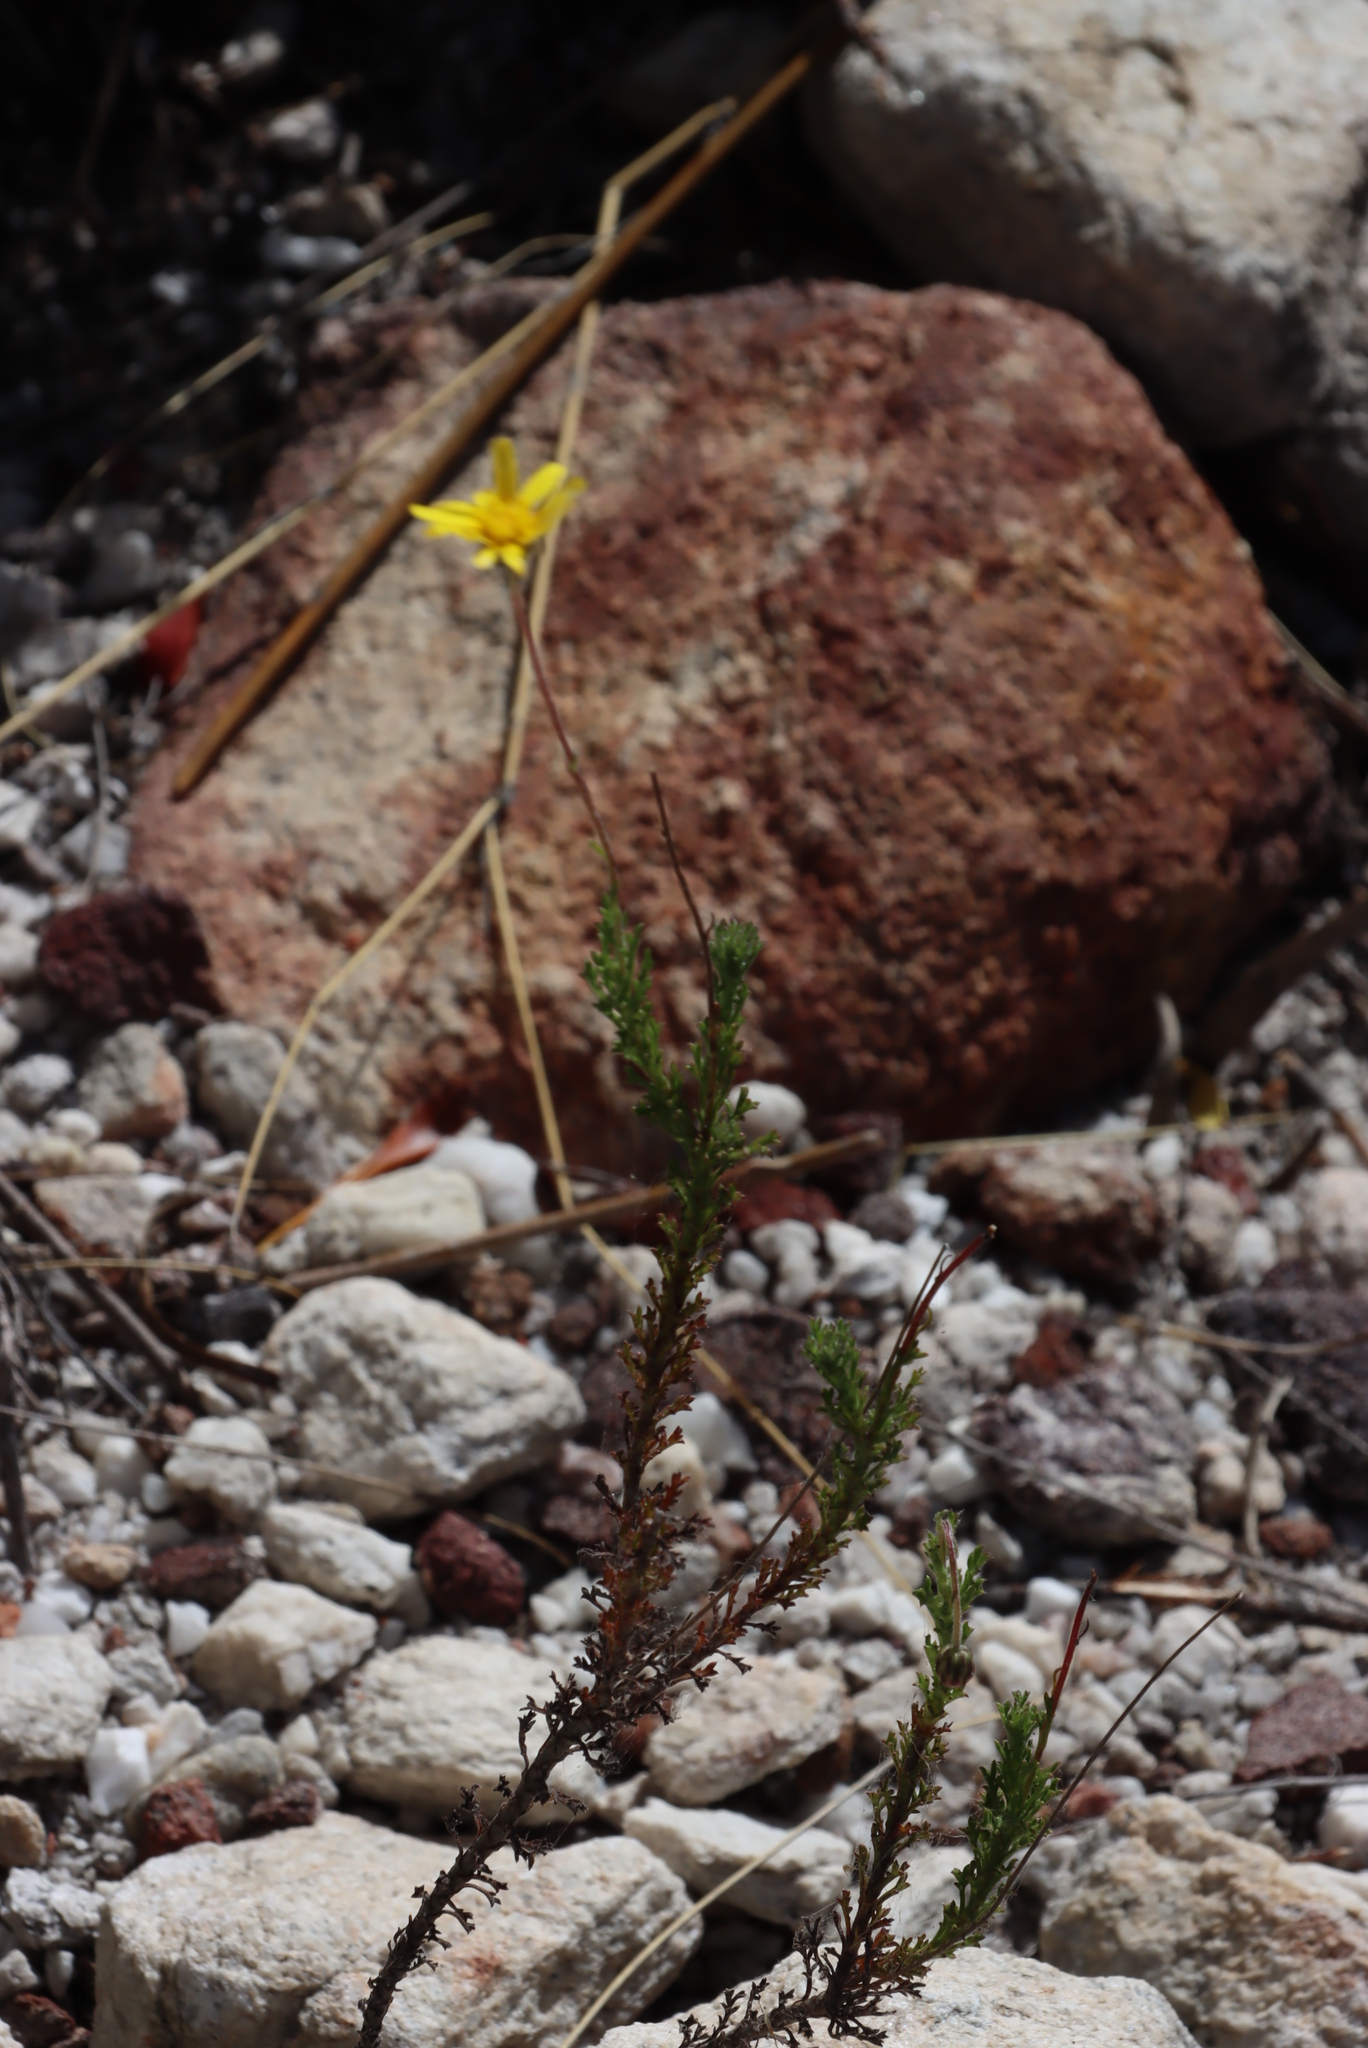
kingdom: Plantae
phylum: Tracheophyta
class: Magnoliopsida
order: Asterales
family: Asteraceae
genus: Ursinia
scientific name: Ursinia paleacea
